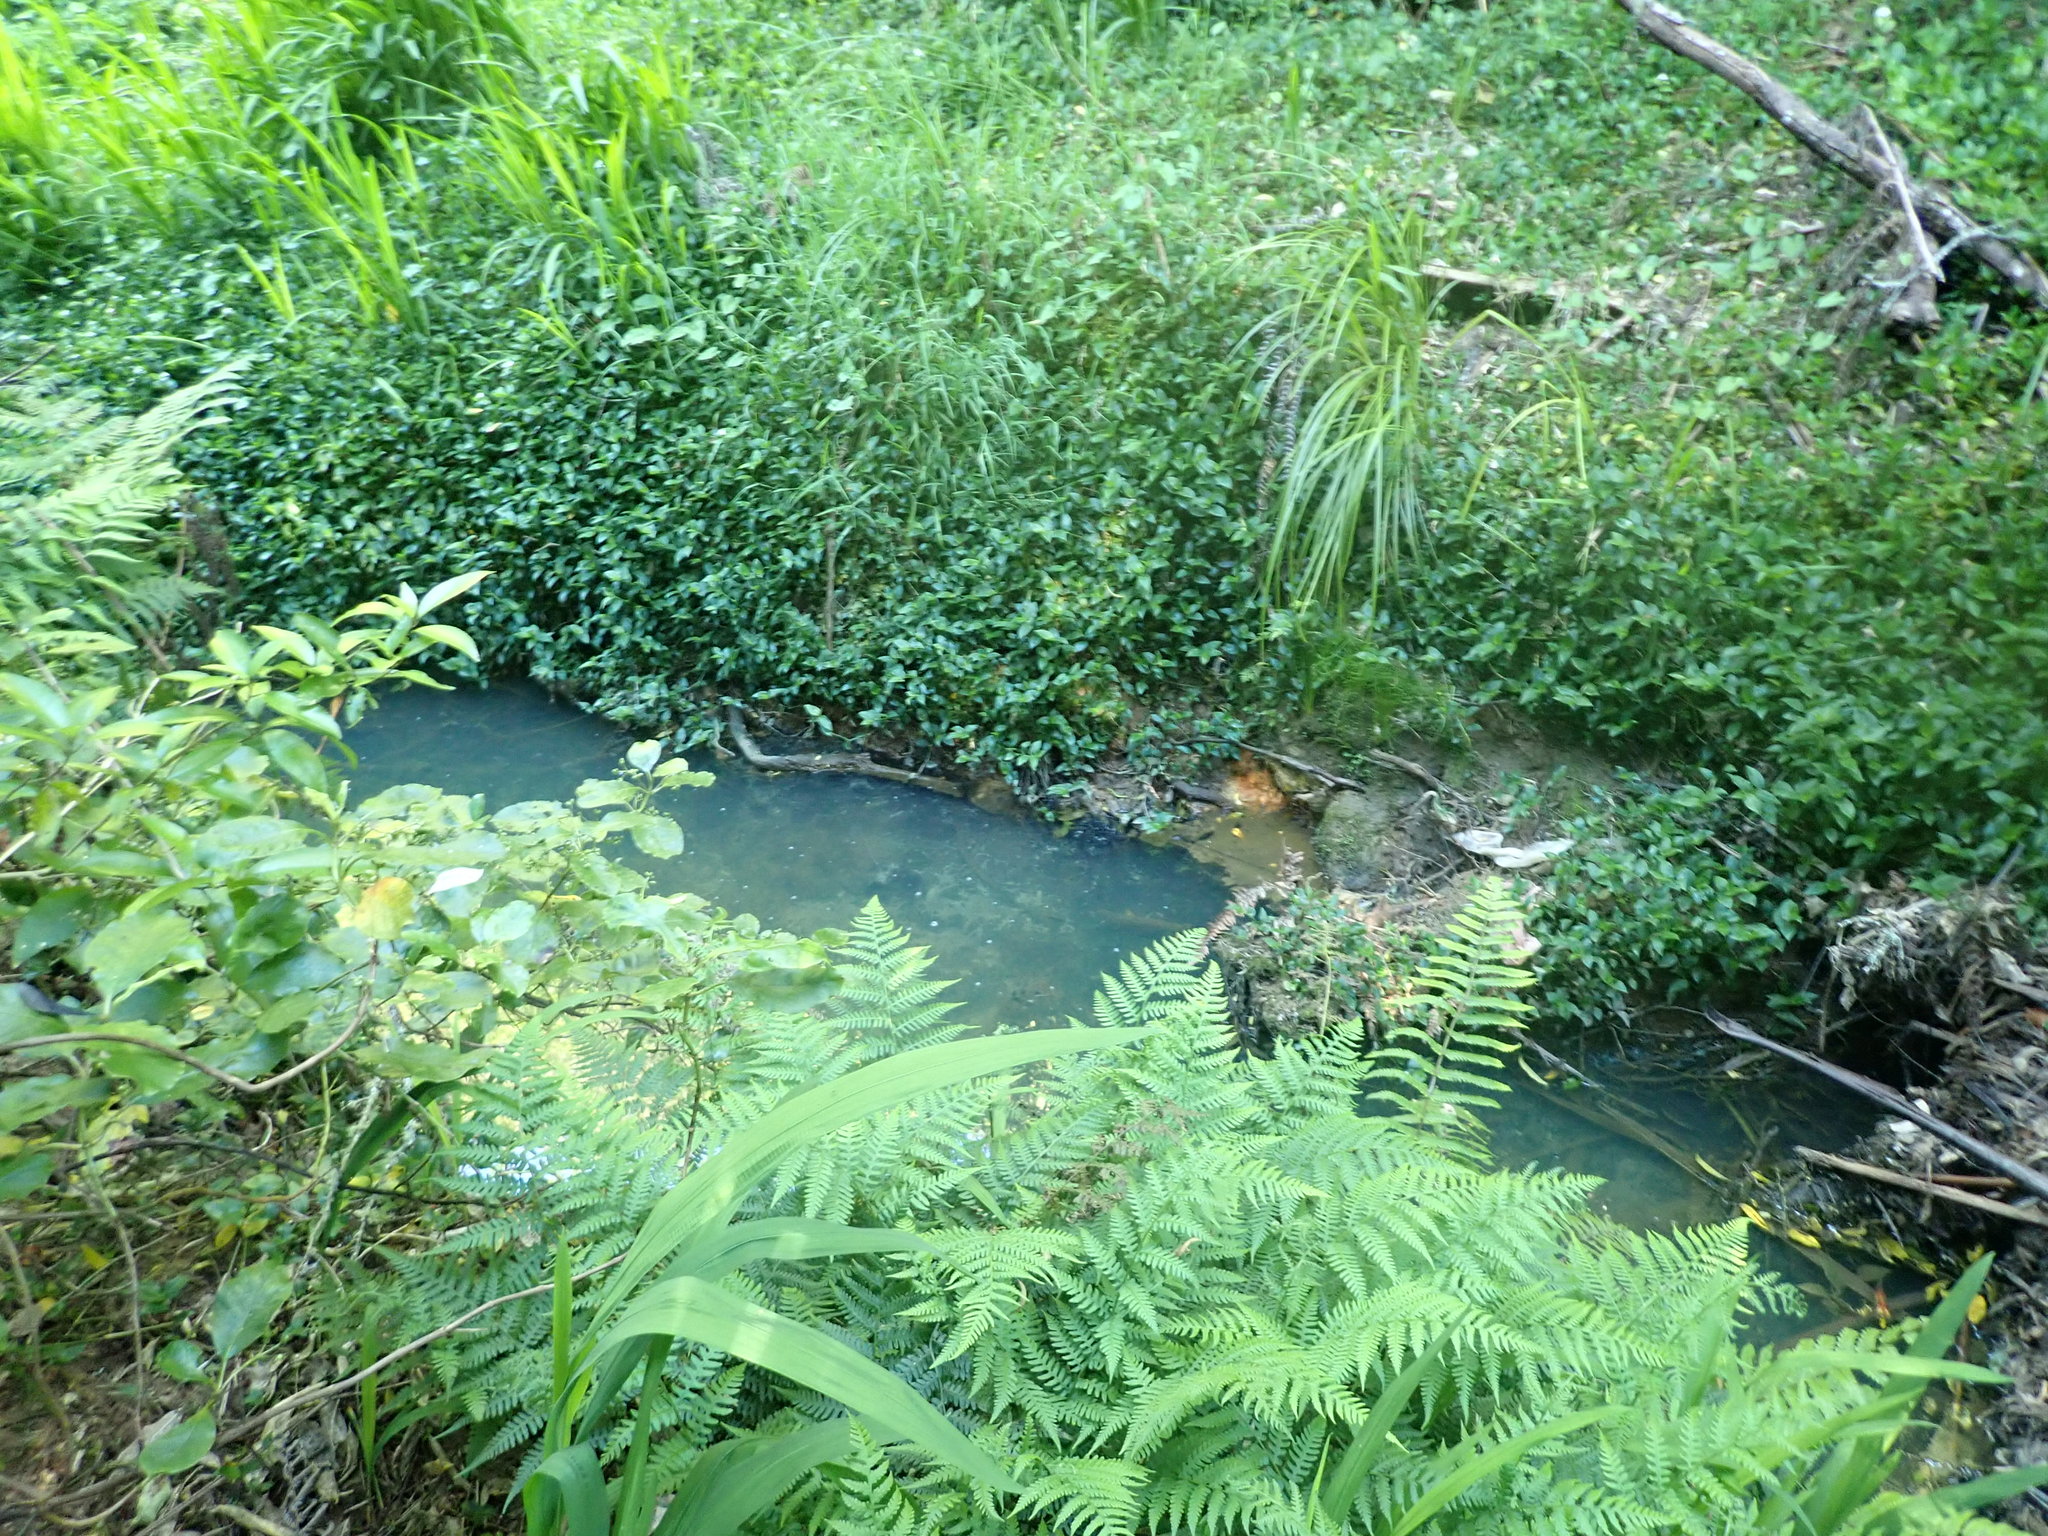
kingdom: Plantae
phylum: Tracheophyta
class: Polypodiopsida
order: Polypodiales
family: Athyriaceae
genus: Diplazium
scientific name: Diplazium congruum
